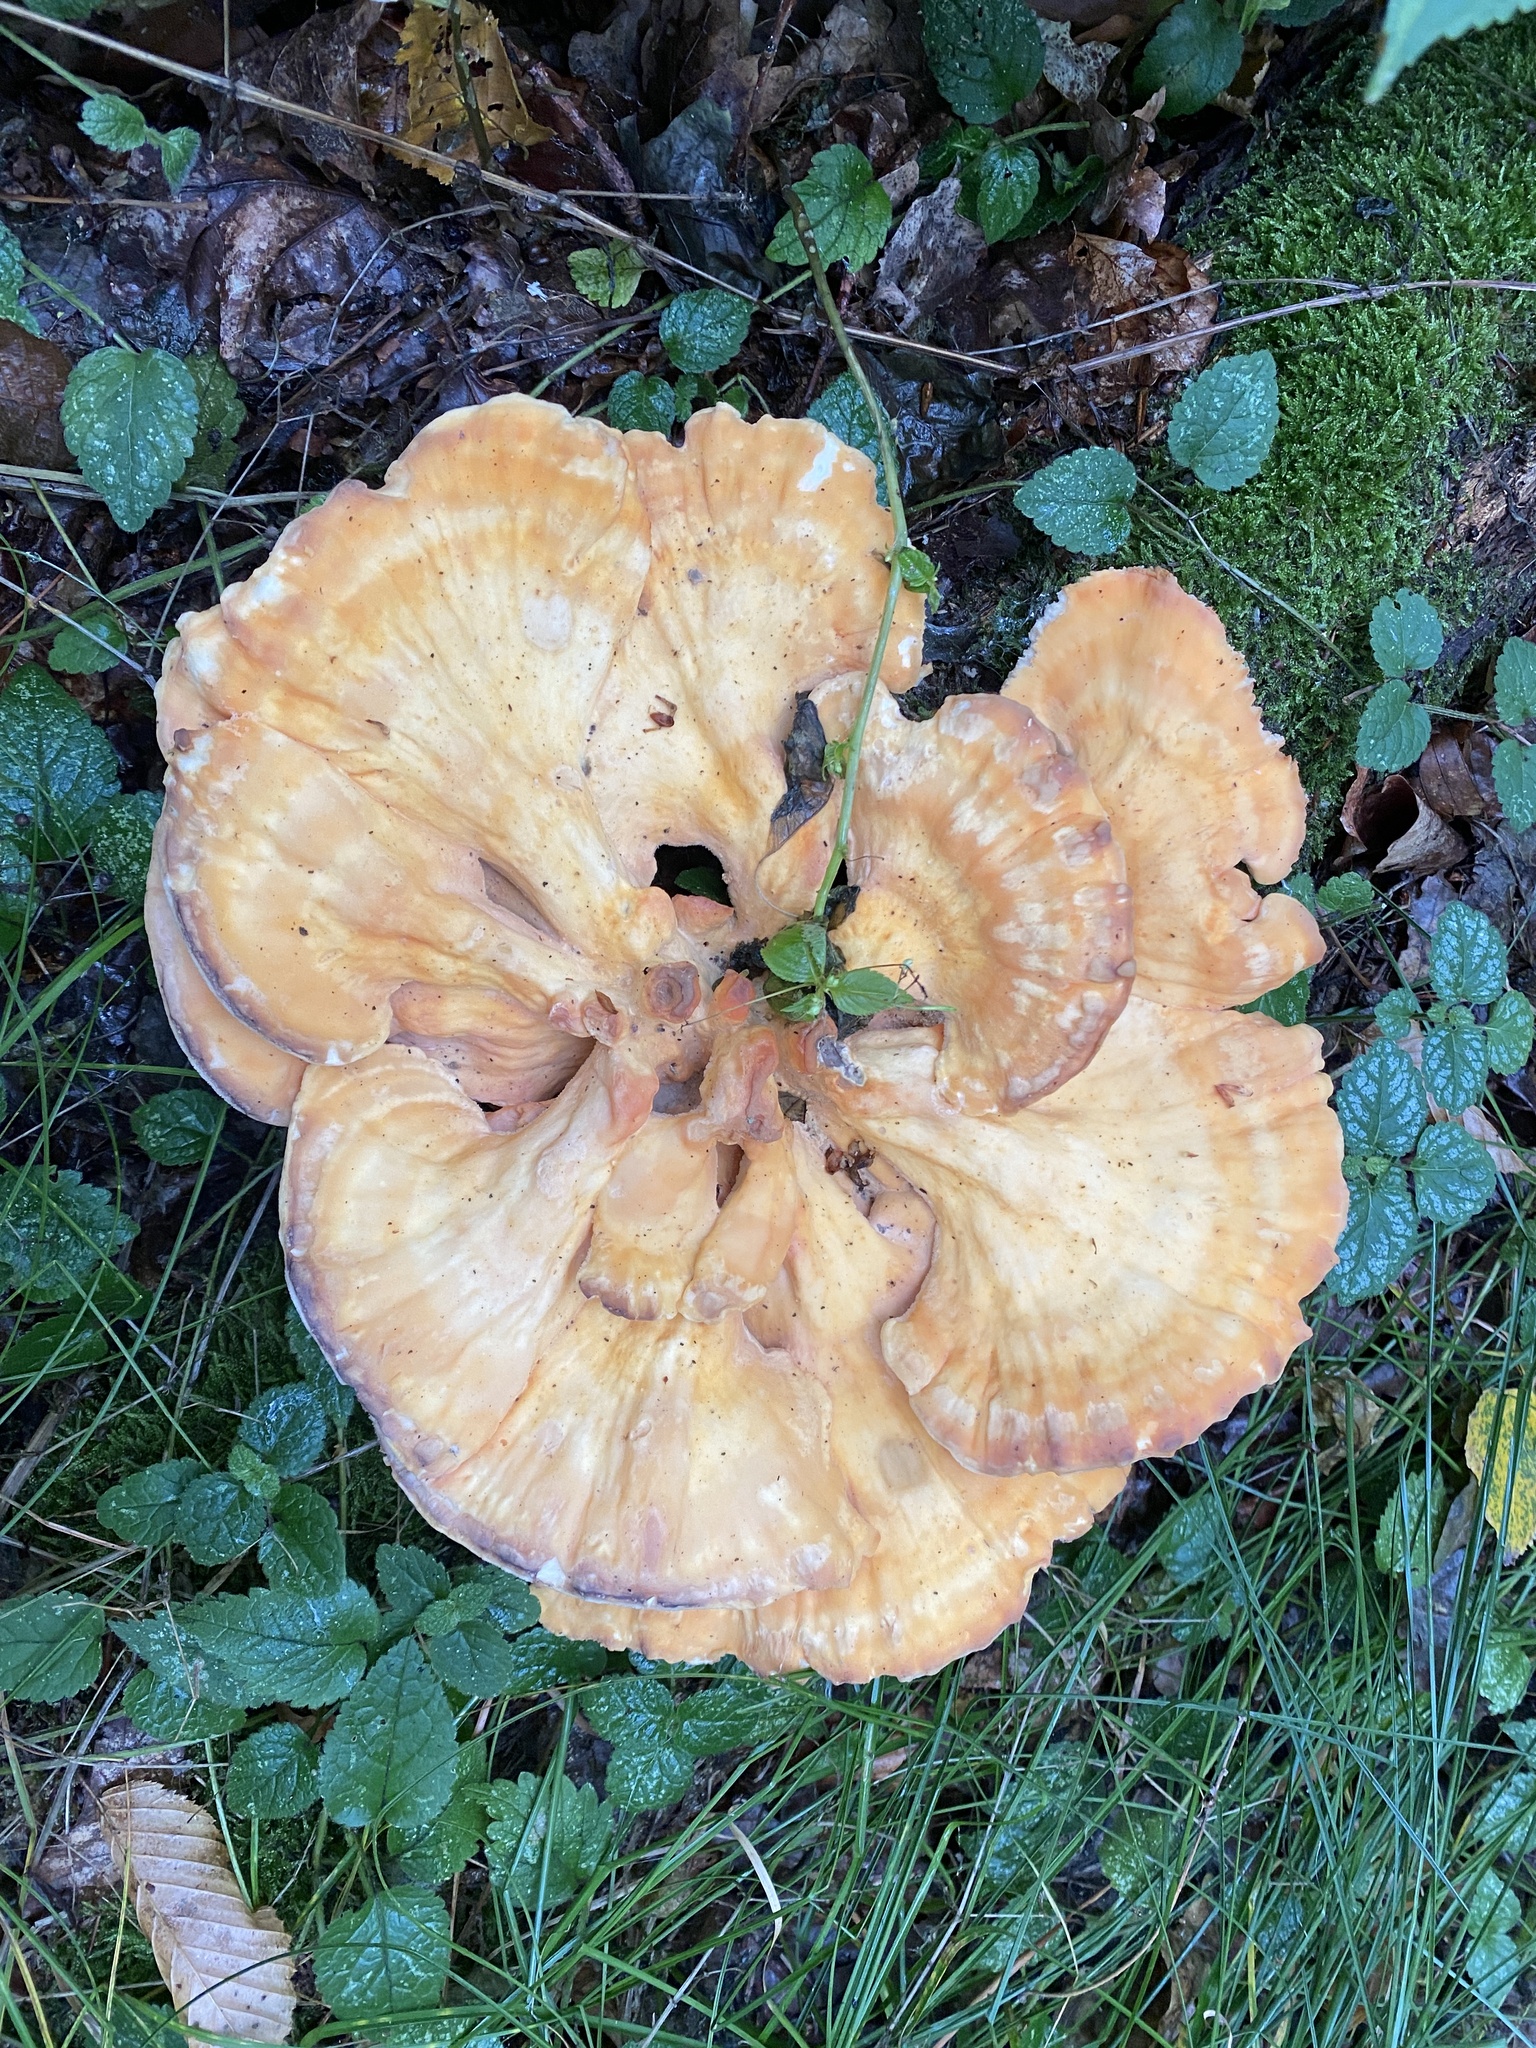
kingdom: Fungi
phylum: Basidiomycota
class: Agaricomycetes
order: Polyporales
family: Laetiporaceae
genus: Laetiporus
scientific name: Laetiporus sulphureus
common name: Chicken of the woods
